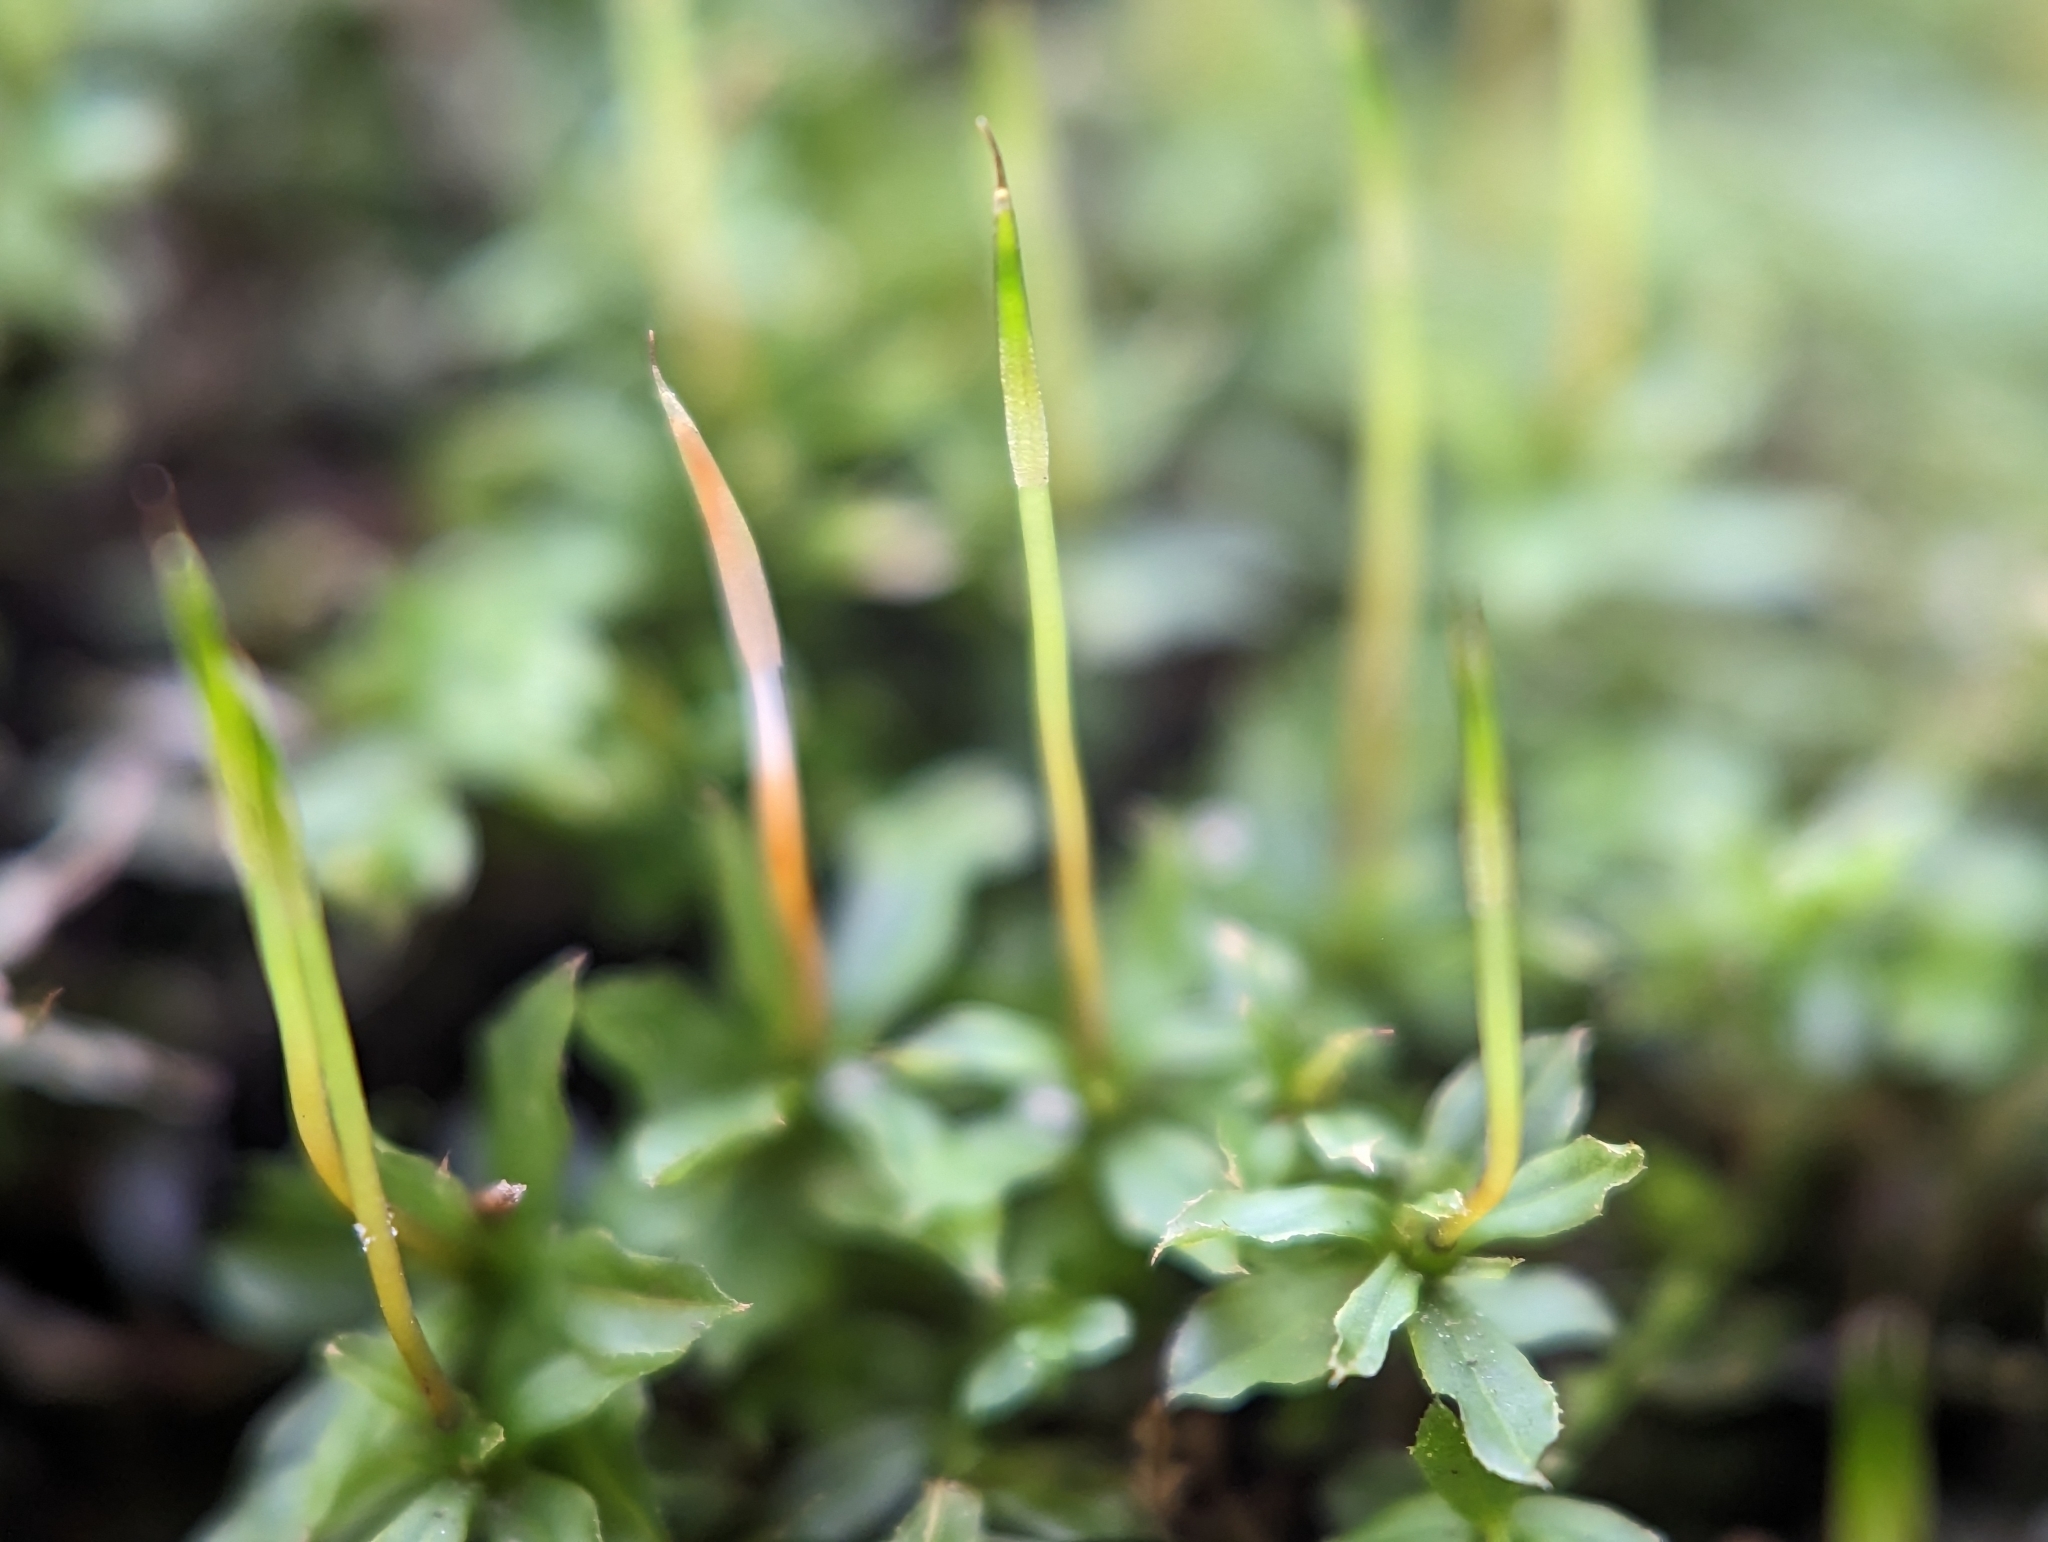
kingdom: Plantae
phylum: Bryophyta
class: Bryopsida
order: Bryales
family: Mniaceae
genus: Plagiomnium
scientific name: Plagiomnium cuspidatum
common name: Woodsy leafy moss
